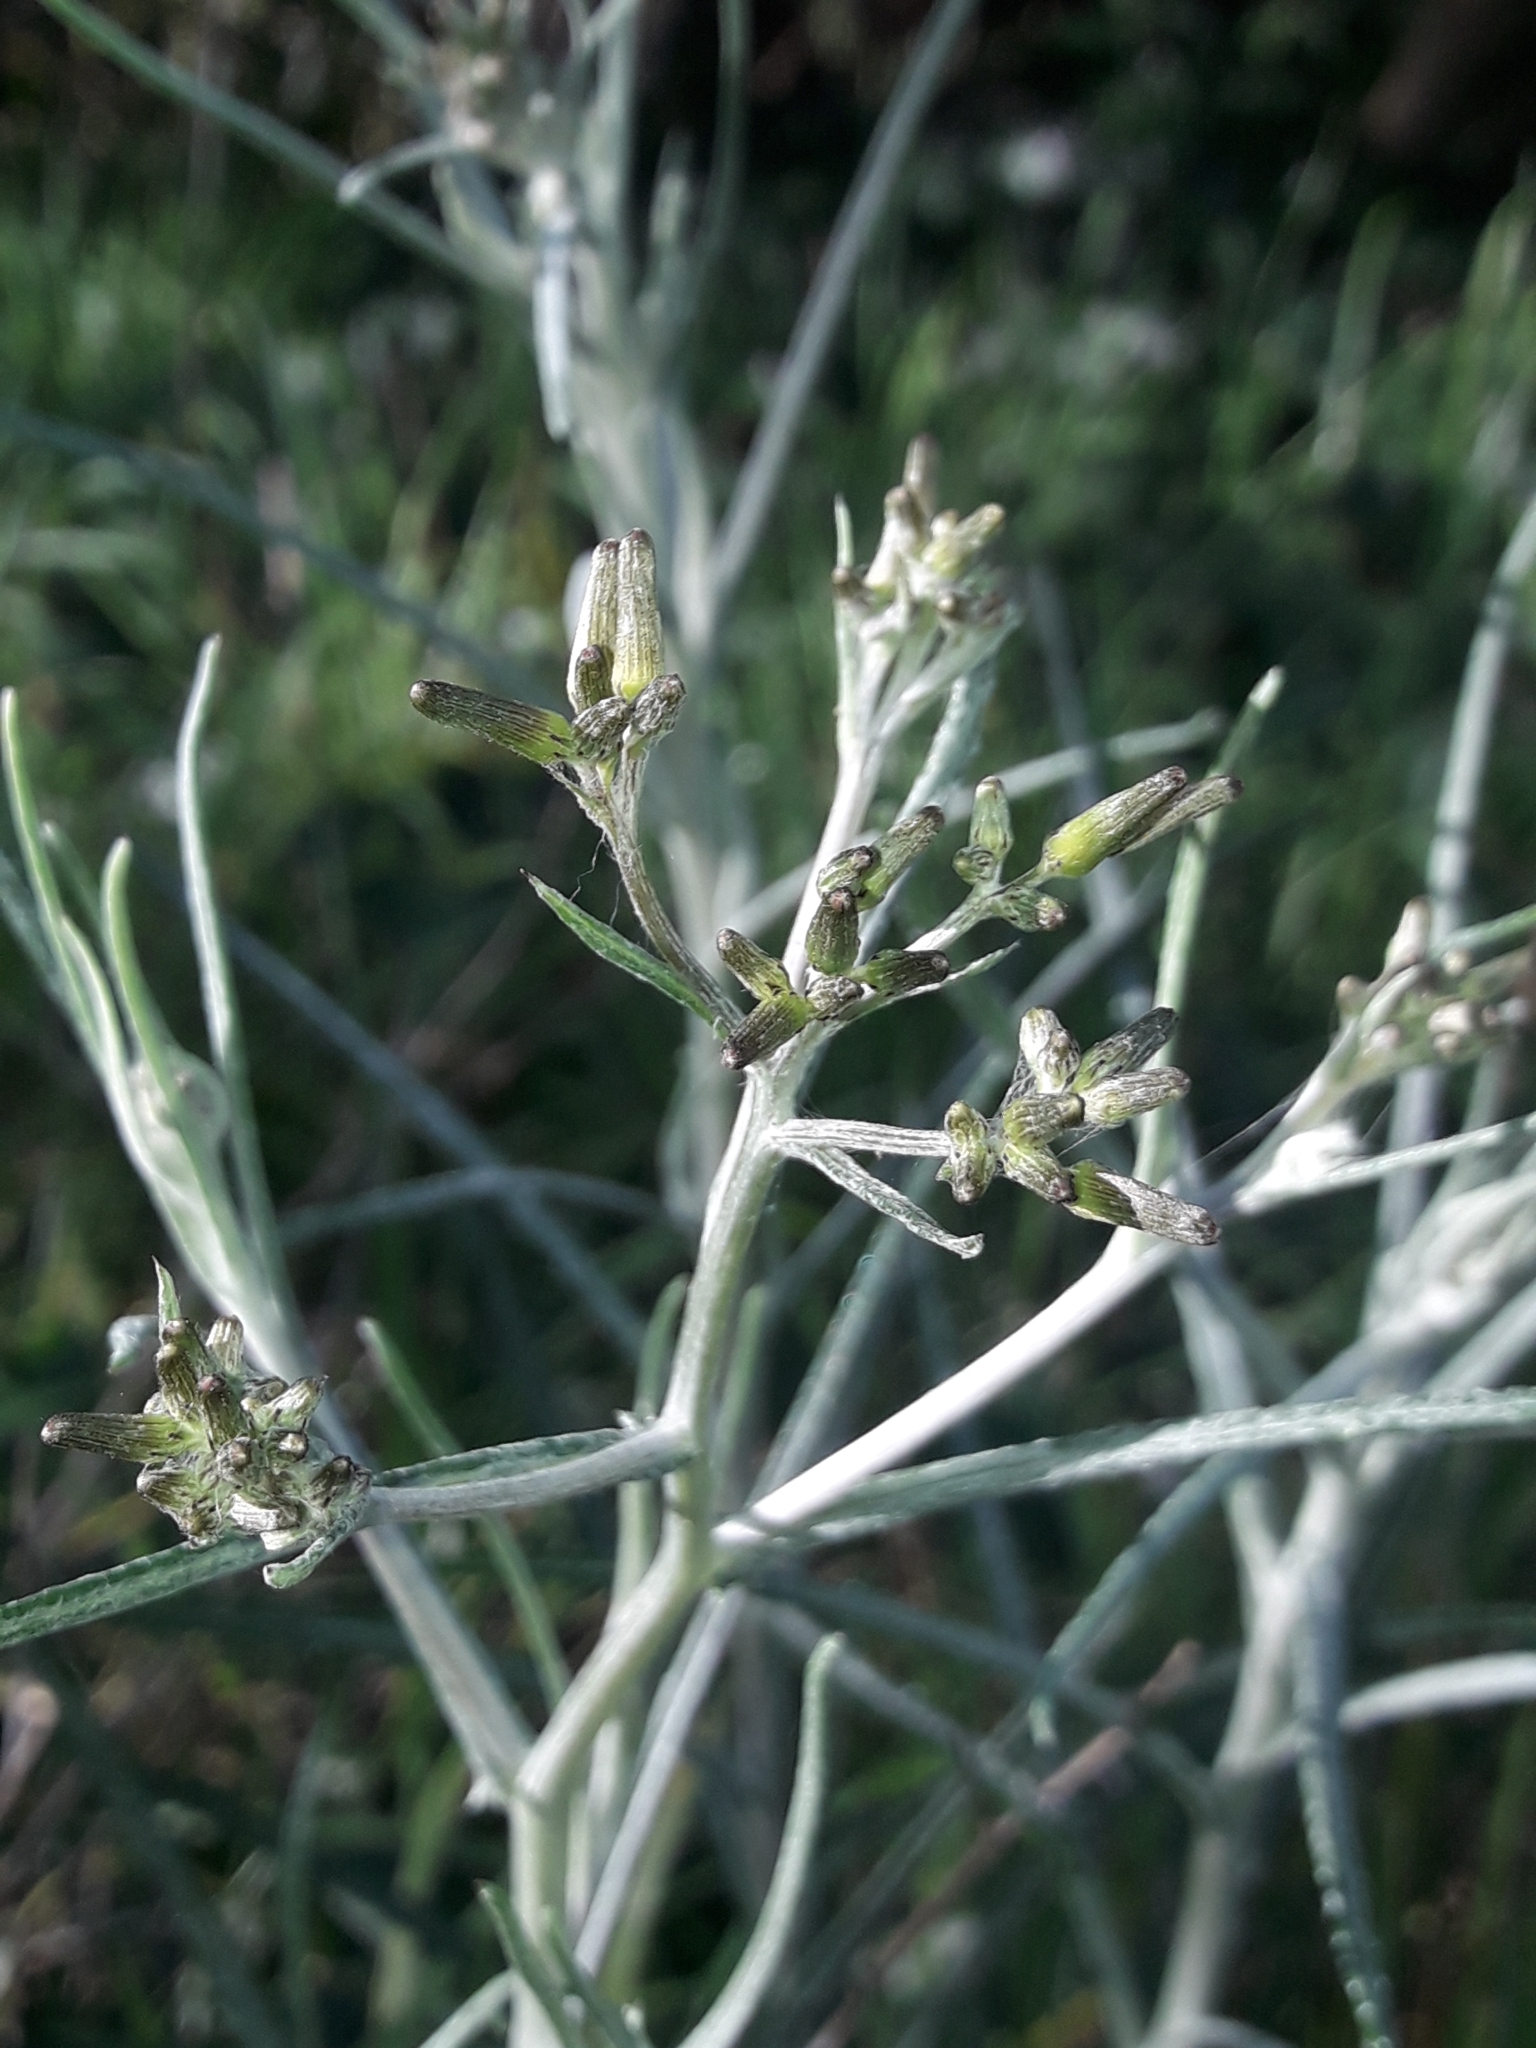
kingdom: Plantae
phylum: Tracheophyta
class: Magnoliopsida
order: Asterales
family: Asteraceae
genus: Senecio
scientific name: Senecio quadridentatus
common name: Cotton fireweed
